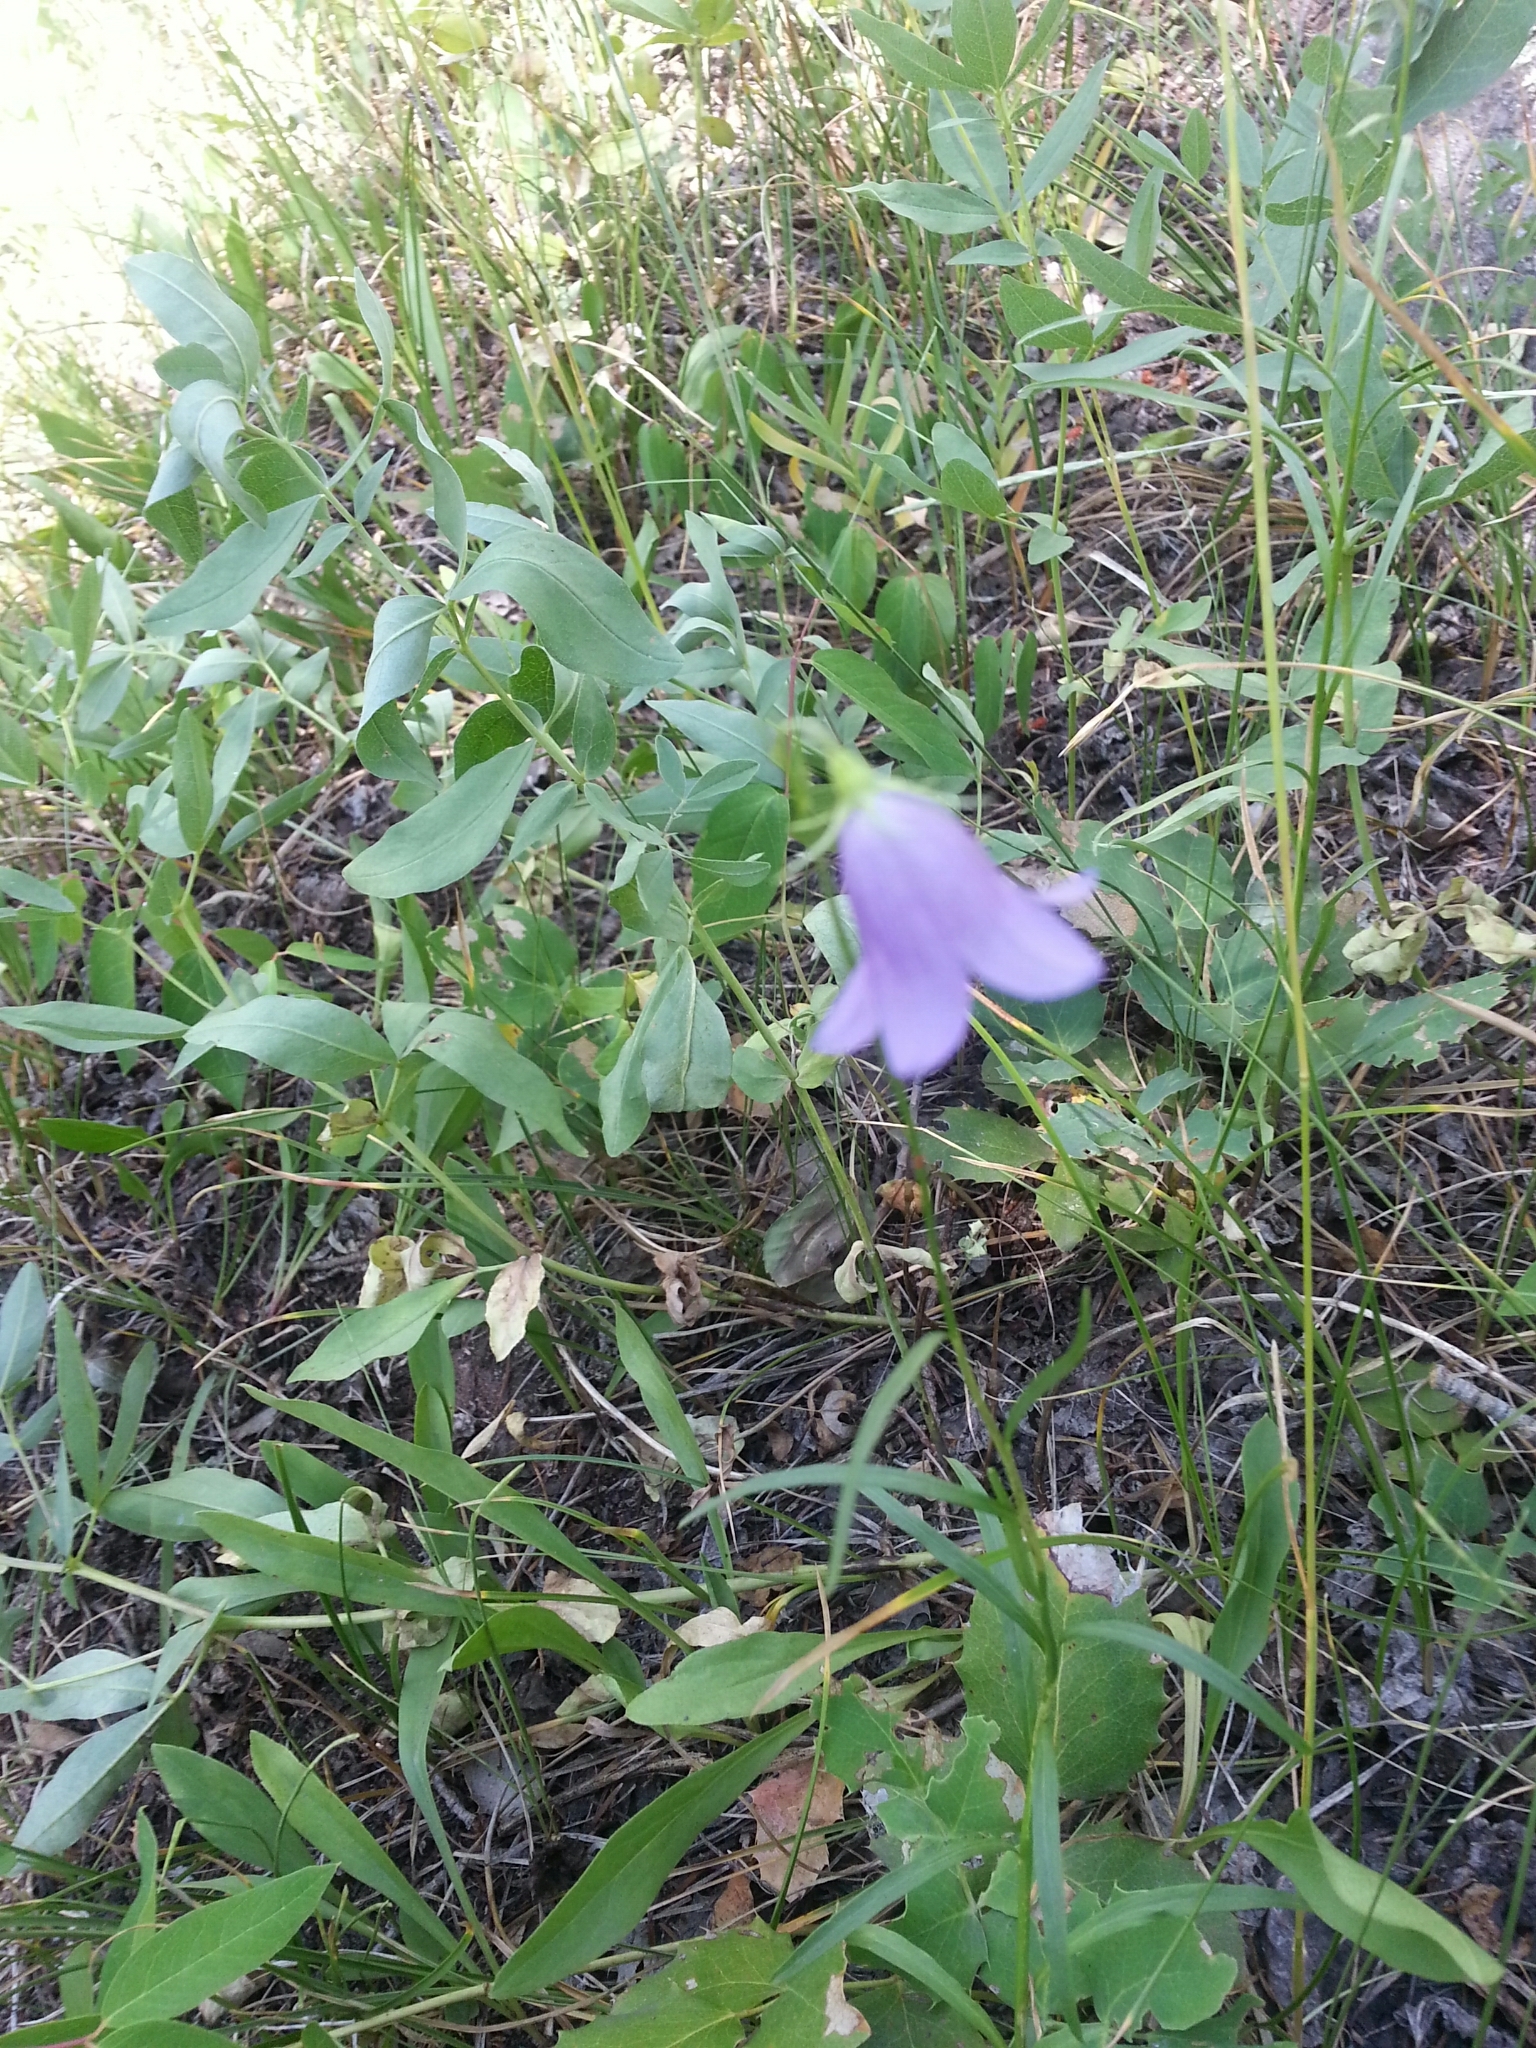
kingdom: Plantae
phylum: Tracheophyta
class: Magnoliopsida
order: Asterales
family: Campanulaceae
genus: Campanula
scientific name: Campanula petiolata
